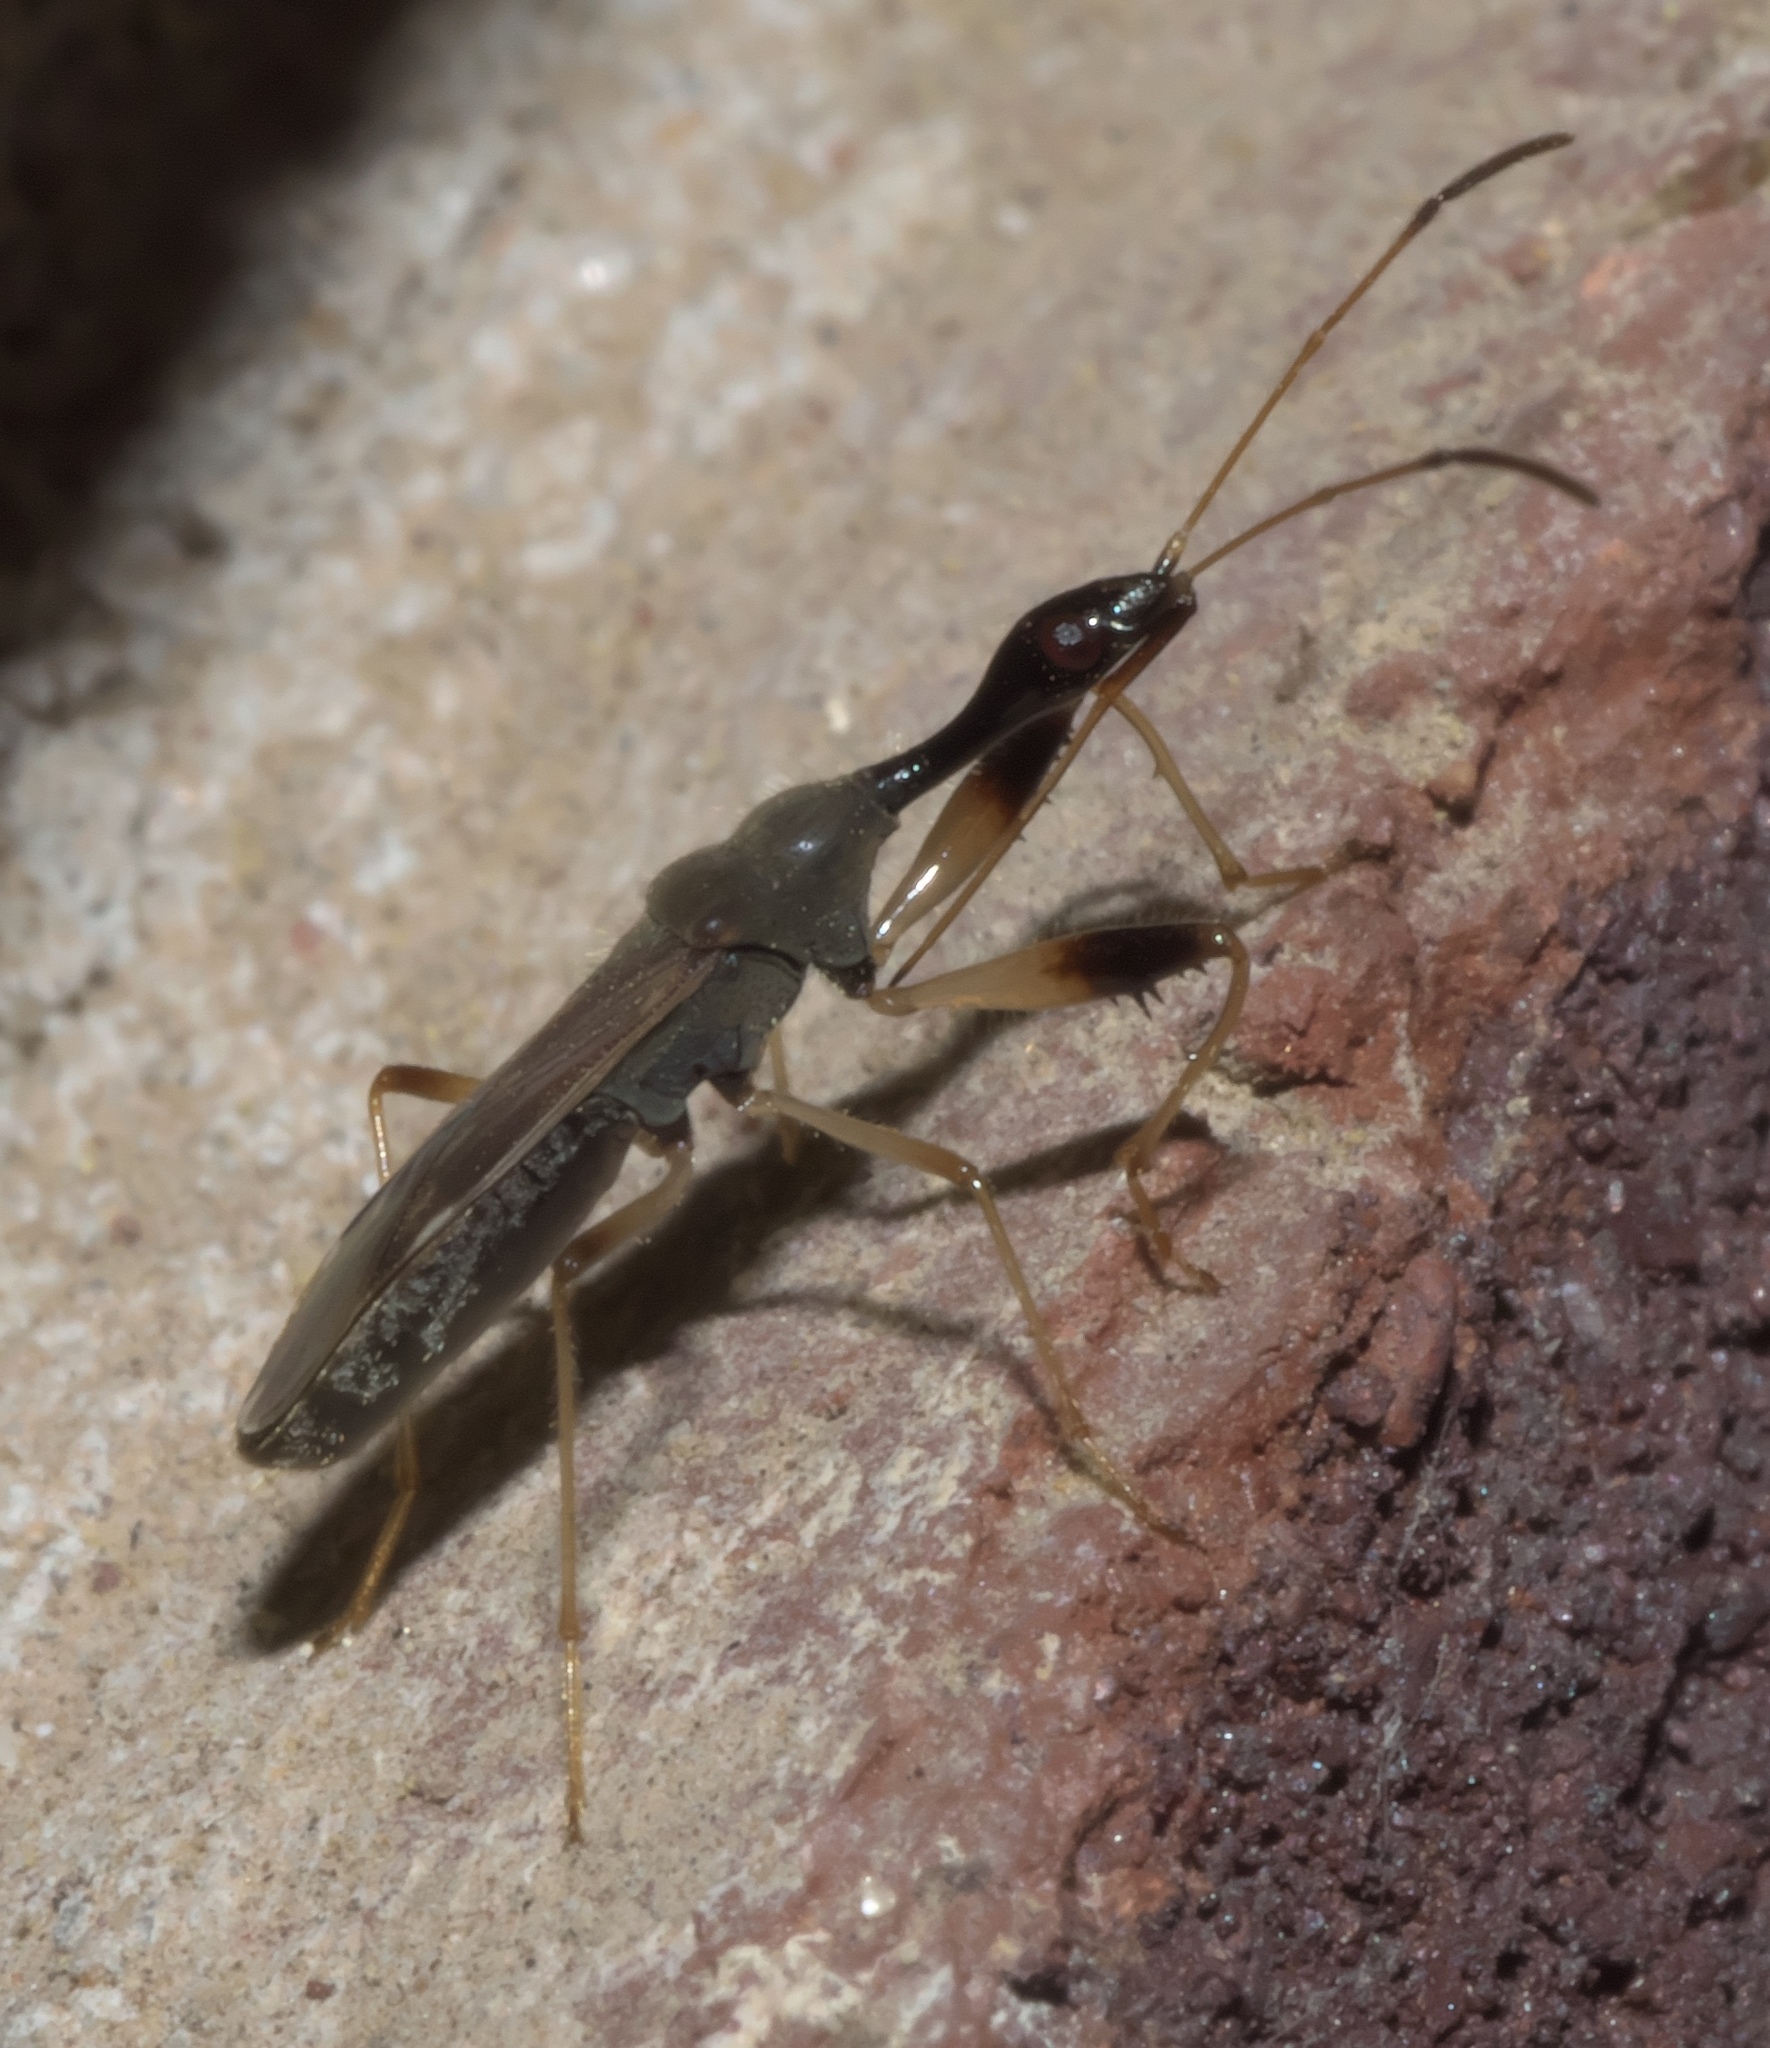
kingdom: Animalia
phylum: Arthropoda
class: Insecta
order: Hemiptera
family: Rhyparochromidae
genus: Myodocha
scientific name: Myodocha serripes
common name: Long-necked seed bug
